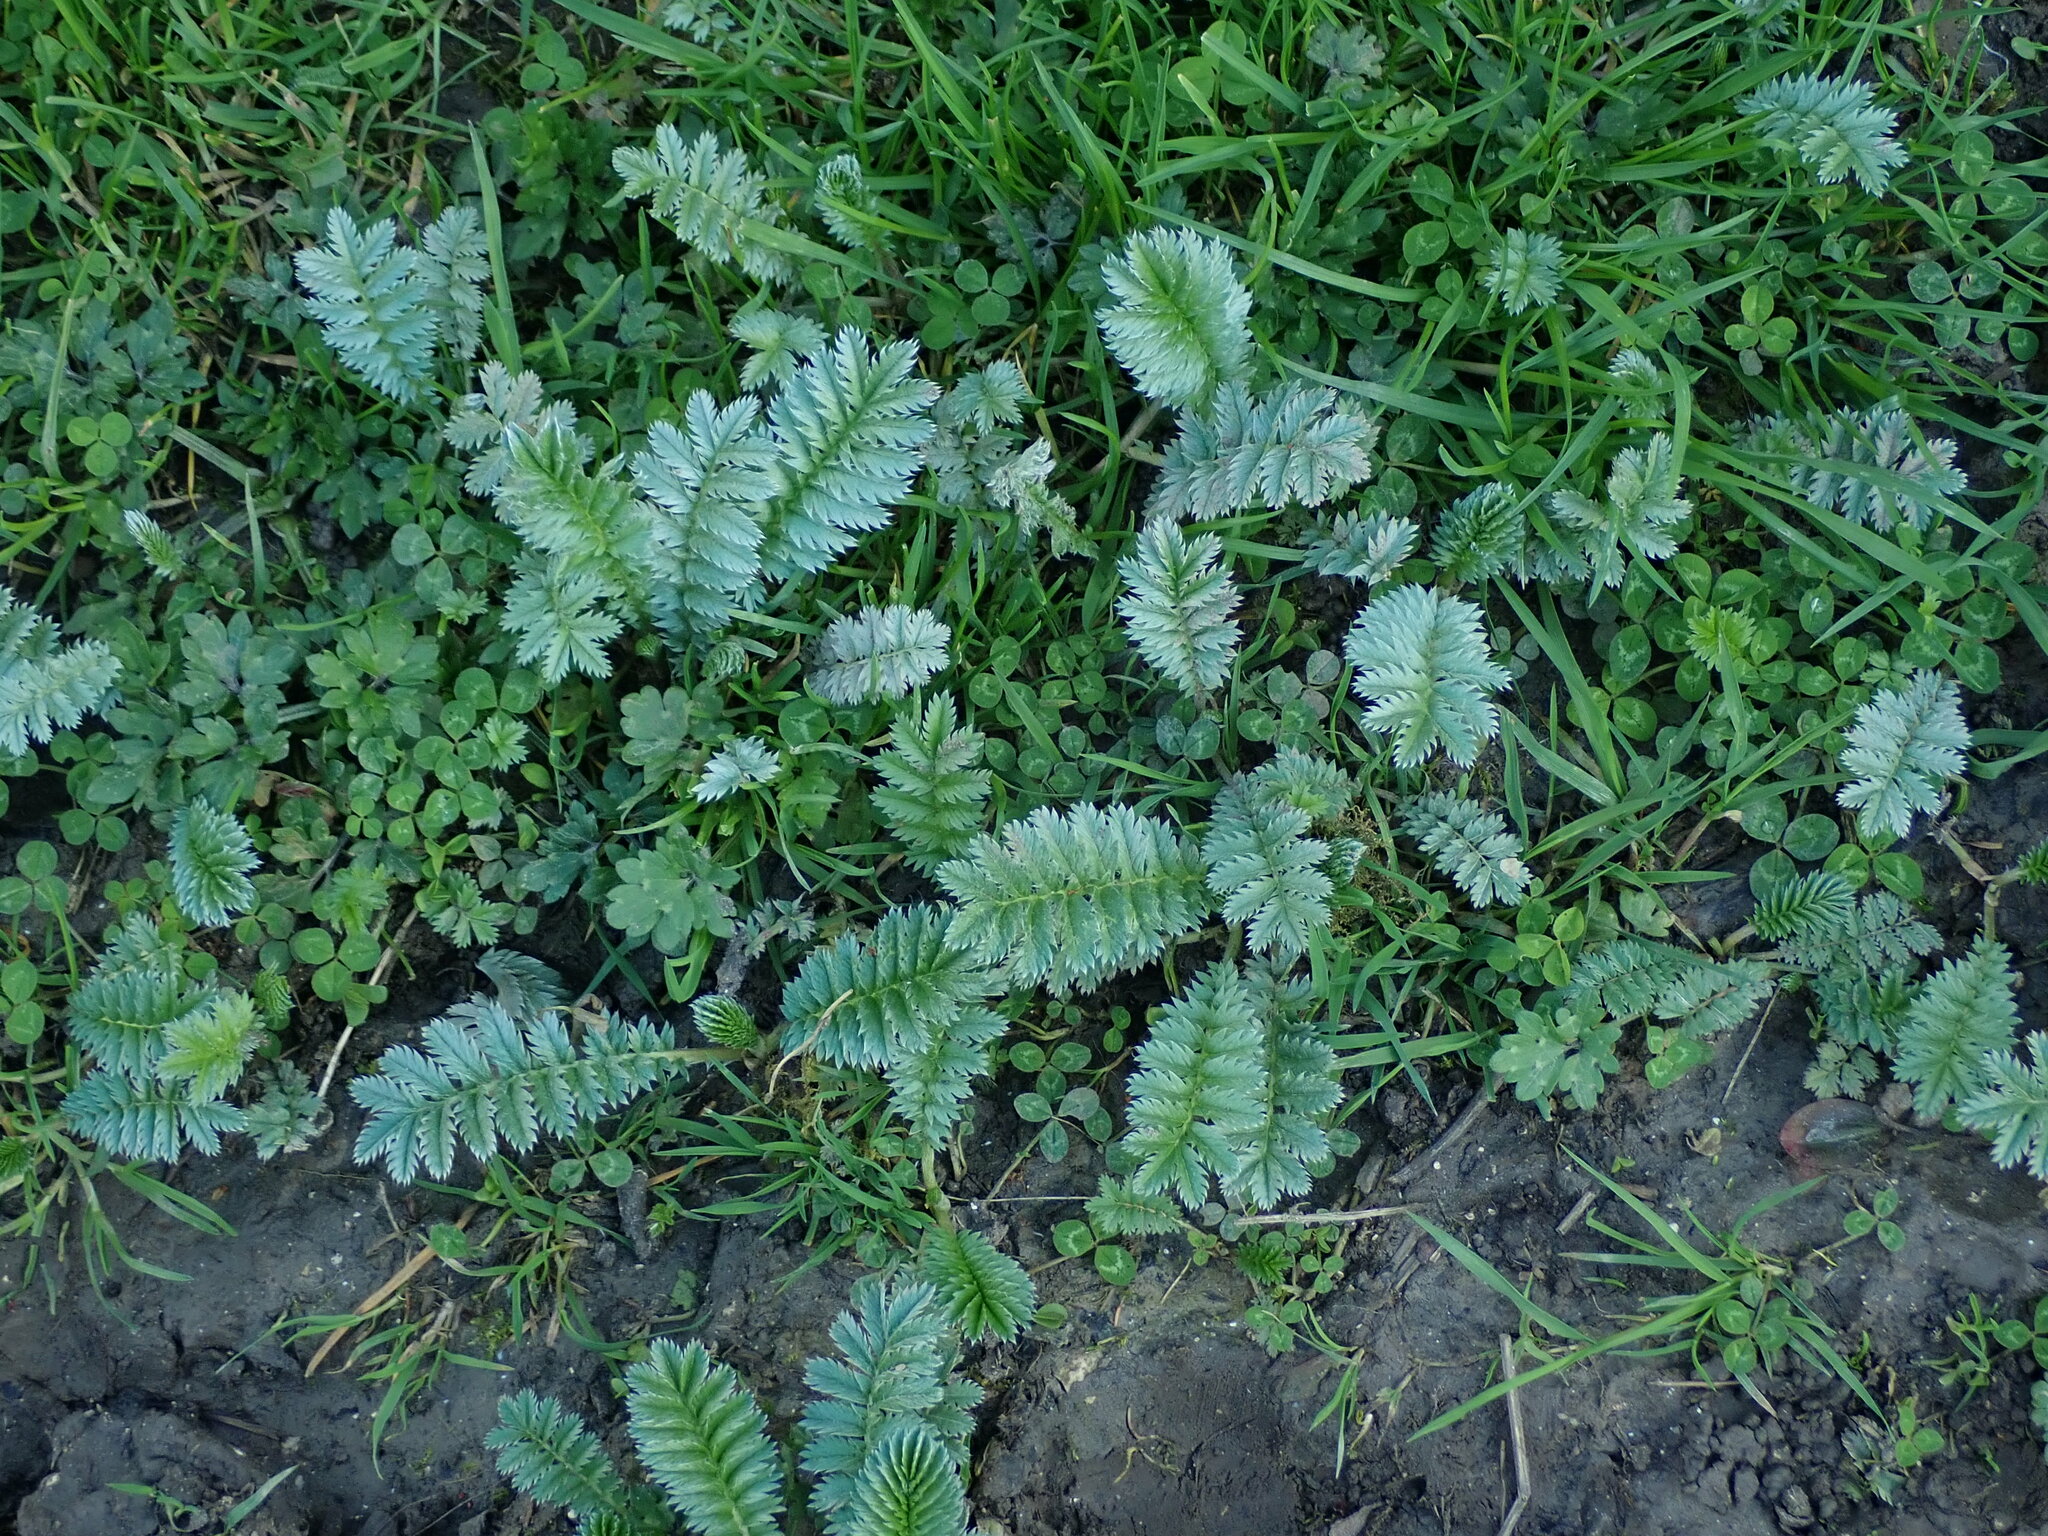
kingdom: Plantae
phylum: Tracheophyta
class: Magnoliopsida
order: Rosales
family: Rosaceae
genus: Argentina
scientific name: Argentina anserina
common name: Common silverweed
